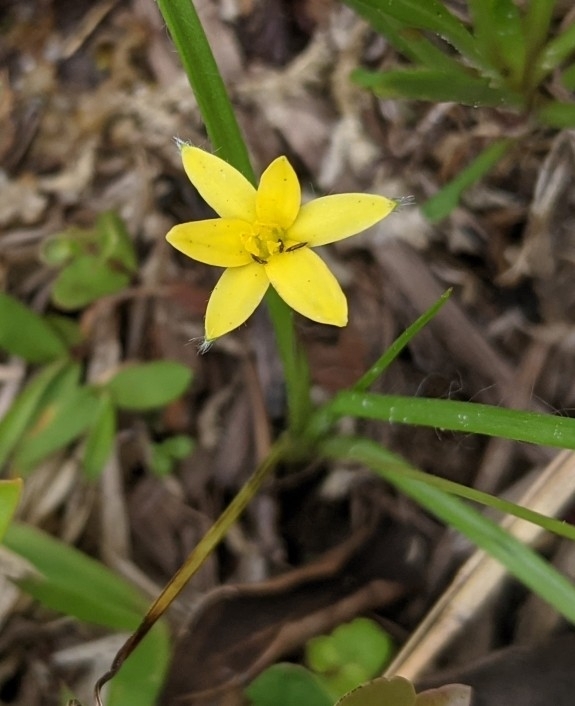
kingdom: Plantae
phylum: Tracheophyta
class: Liliopsida
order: Asparagales
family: Hypoxidaceae
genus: Hypoxis
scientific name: Hypoxis hirsuta
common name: Common goldstar
